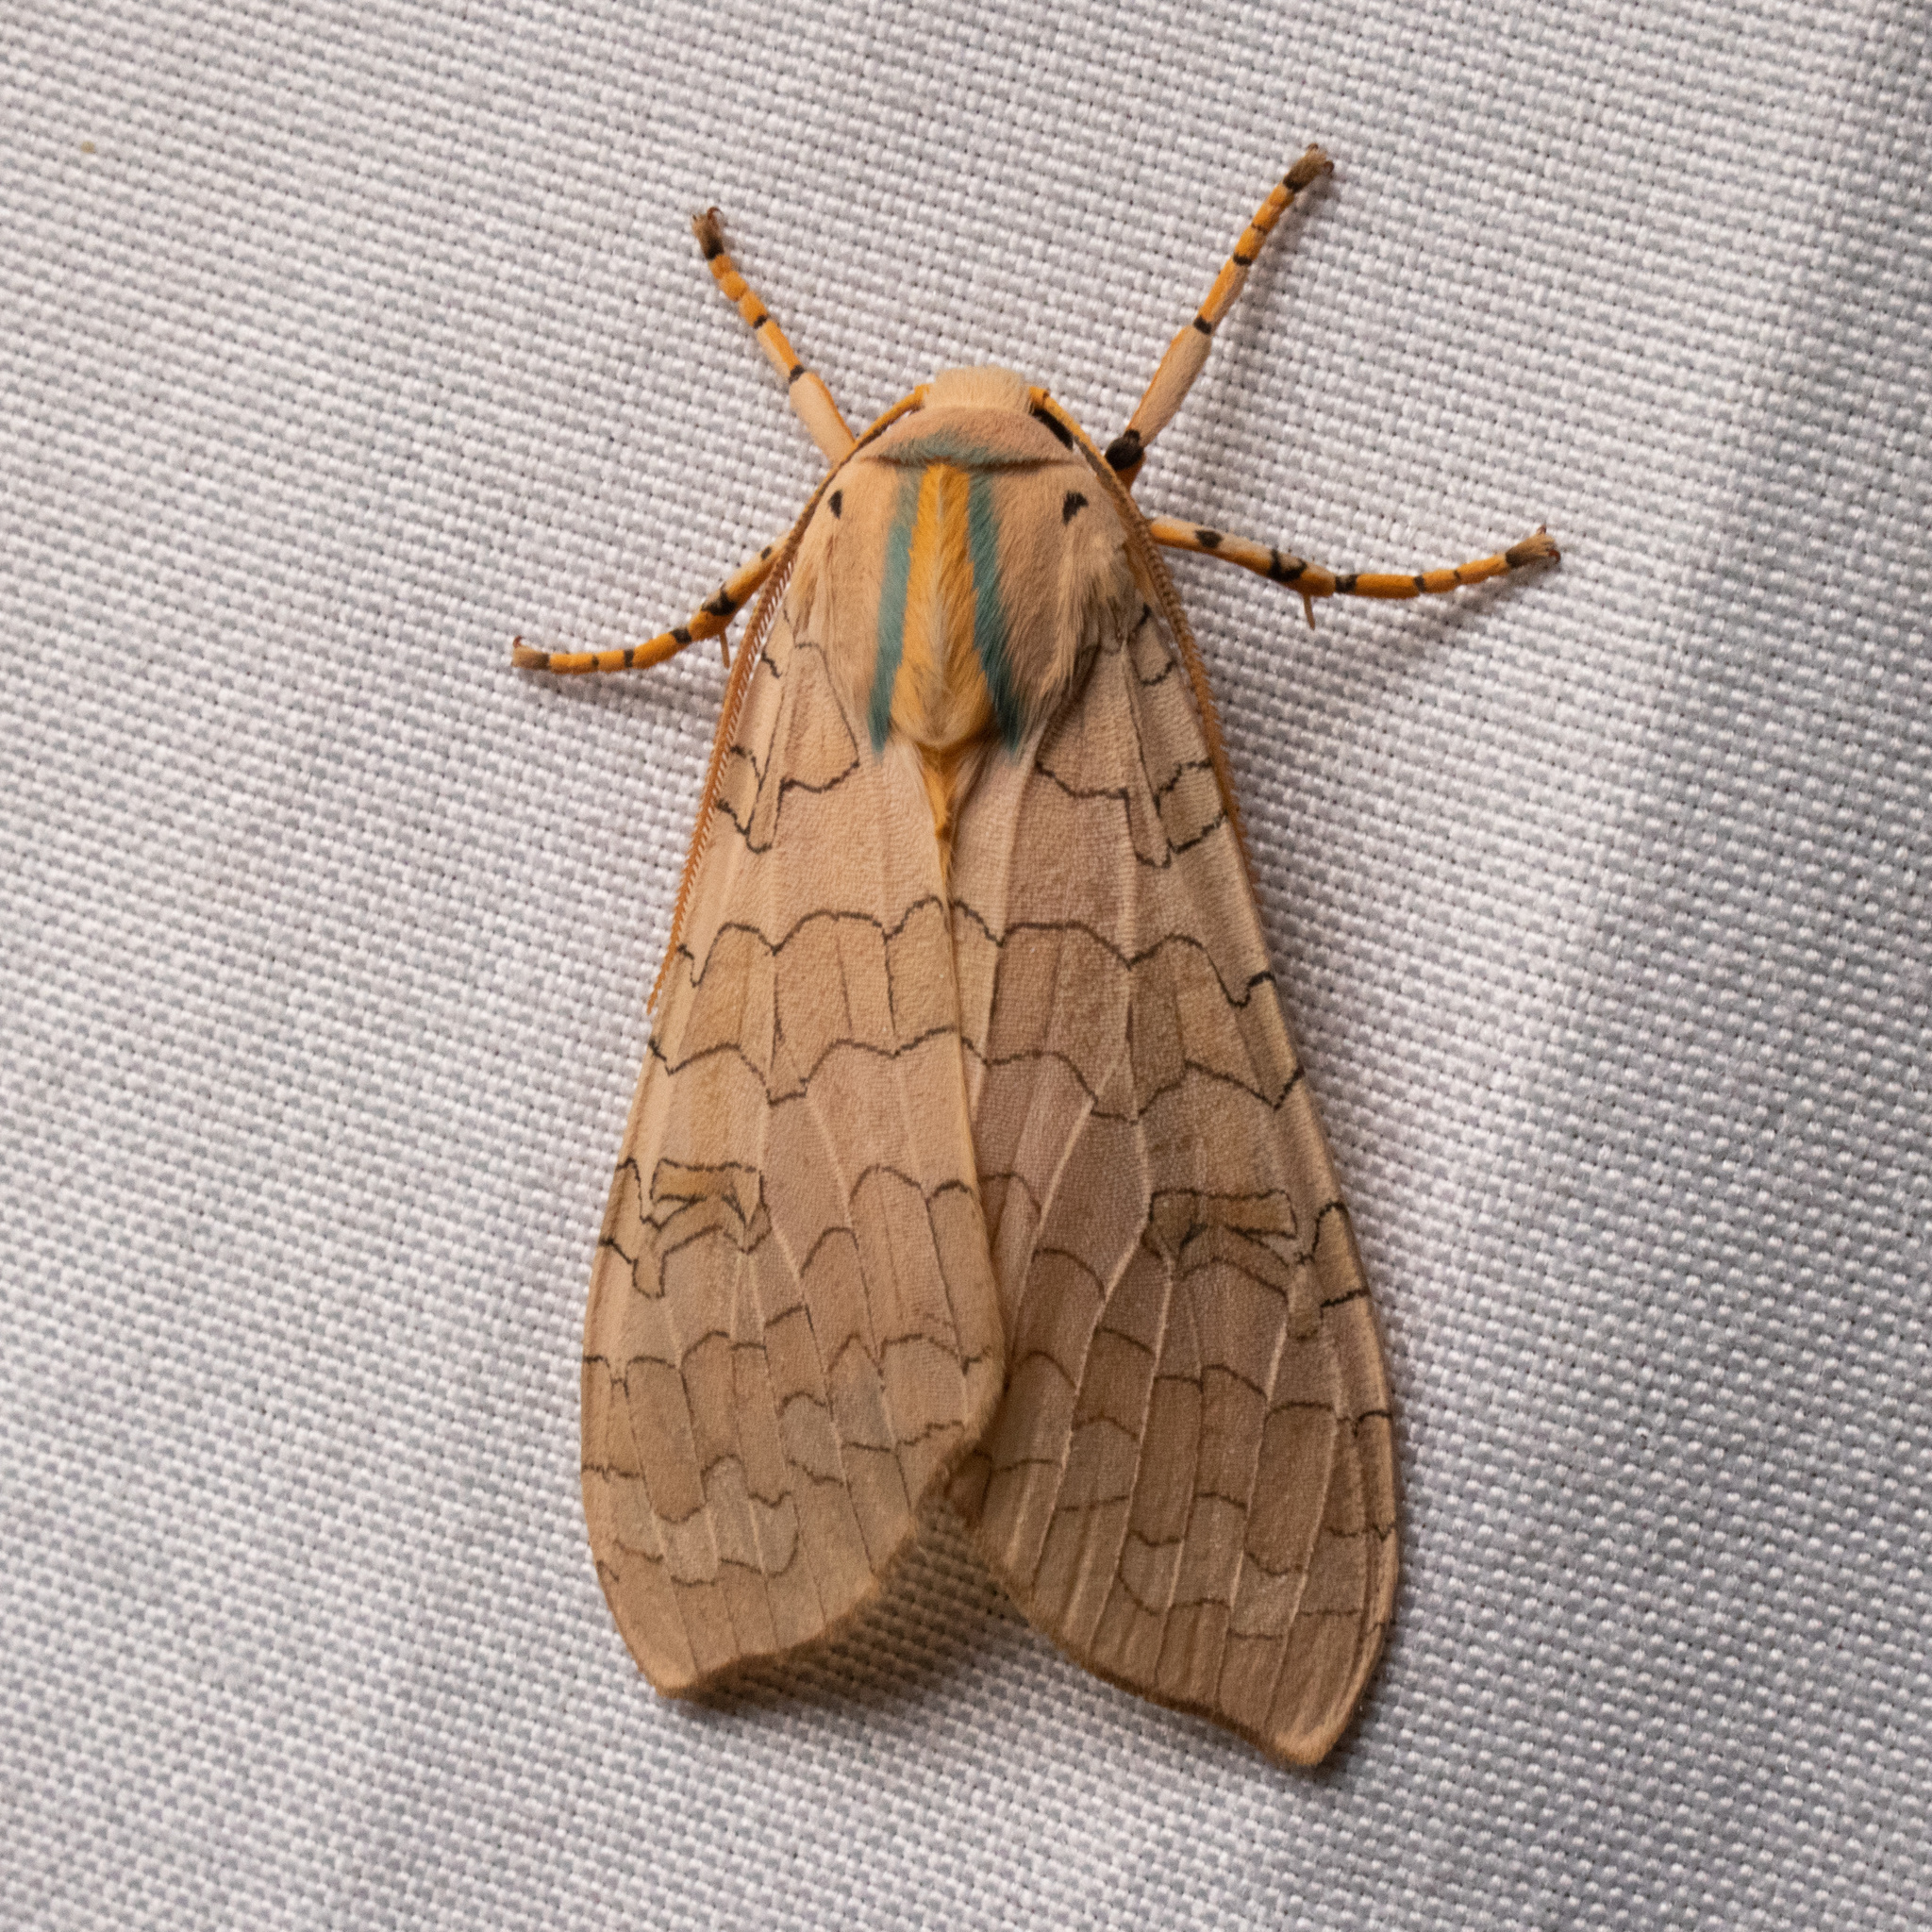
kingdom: Animalia
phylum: Arthropoda
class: Insecta
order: Lepidoptera
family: Erebidae
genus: Halysidota
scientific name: Halysidota
